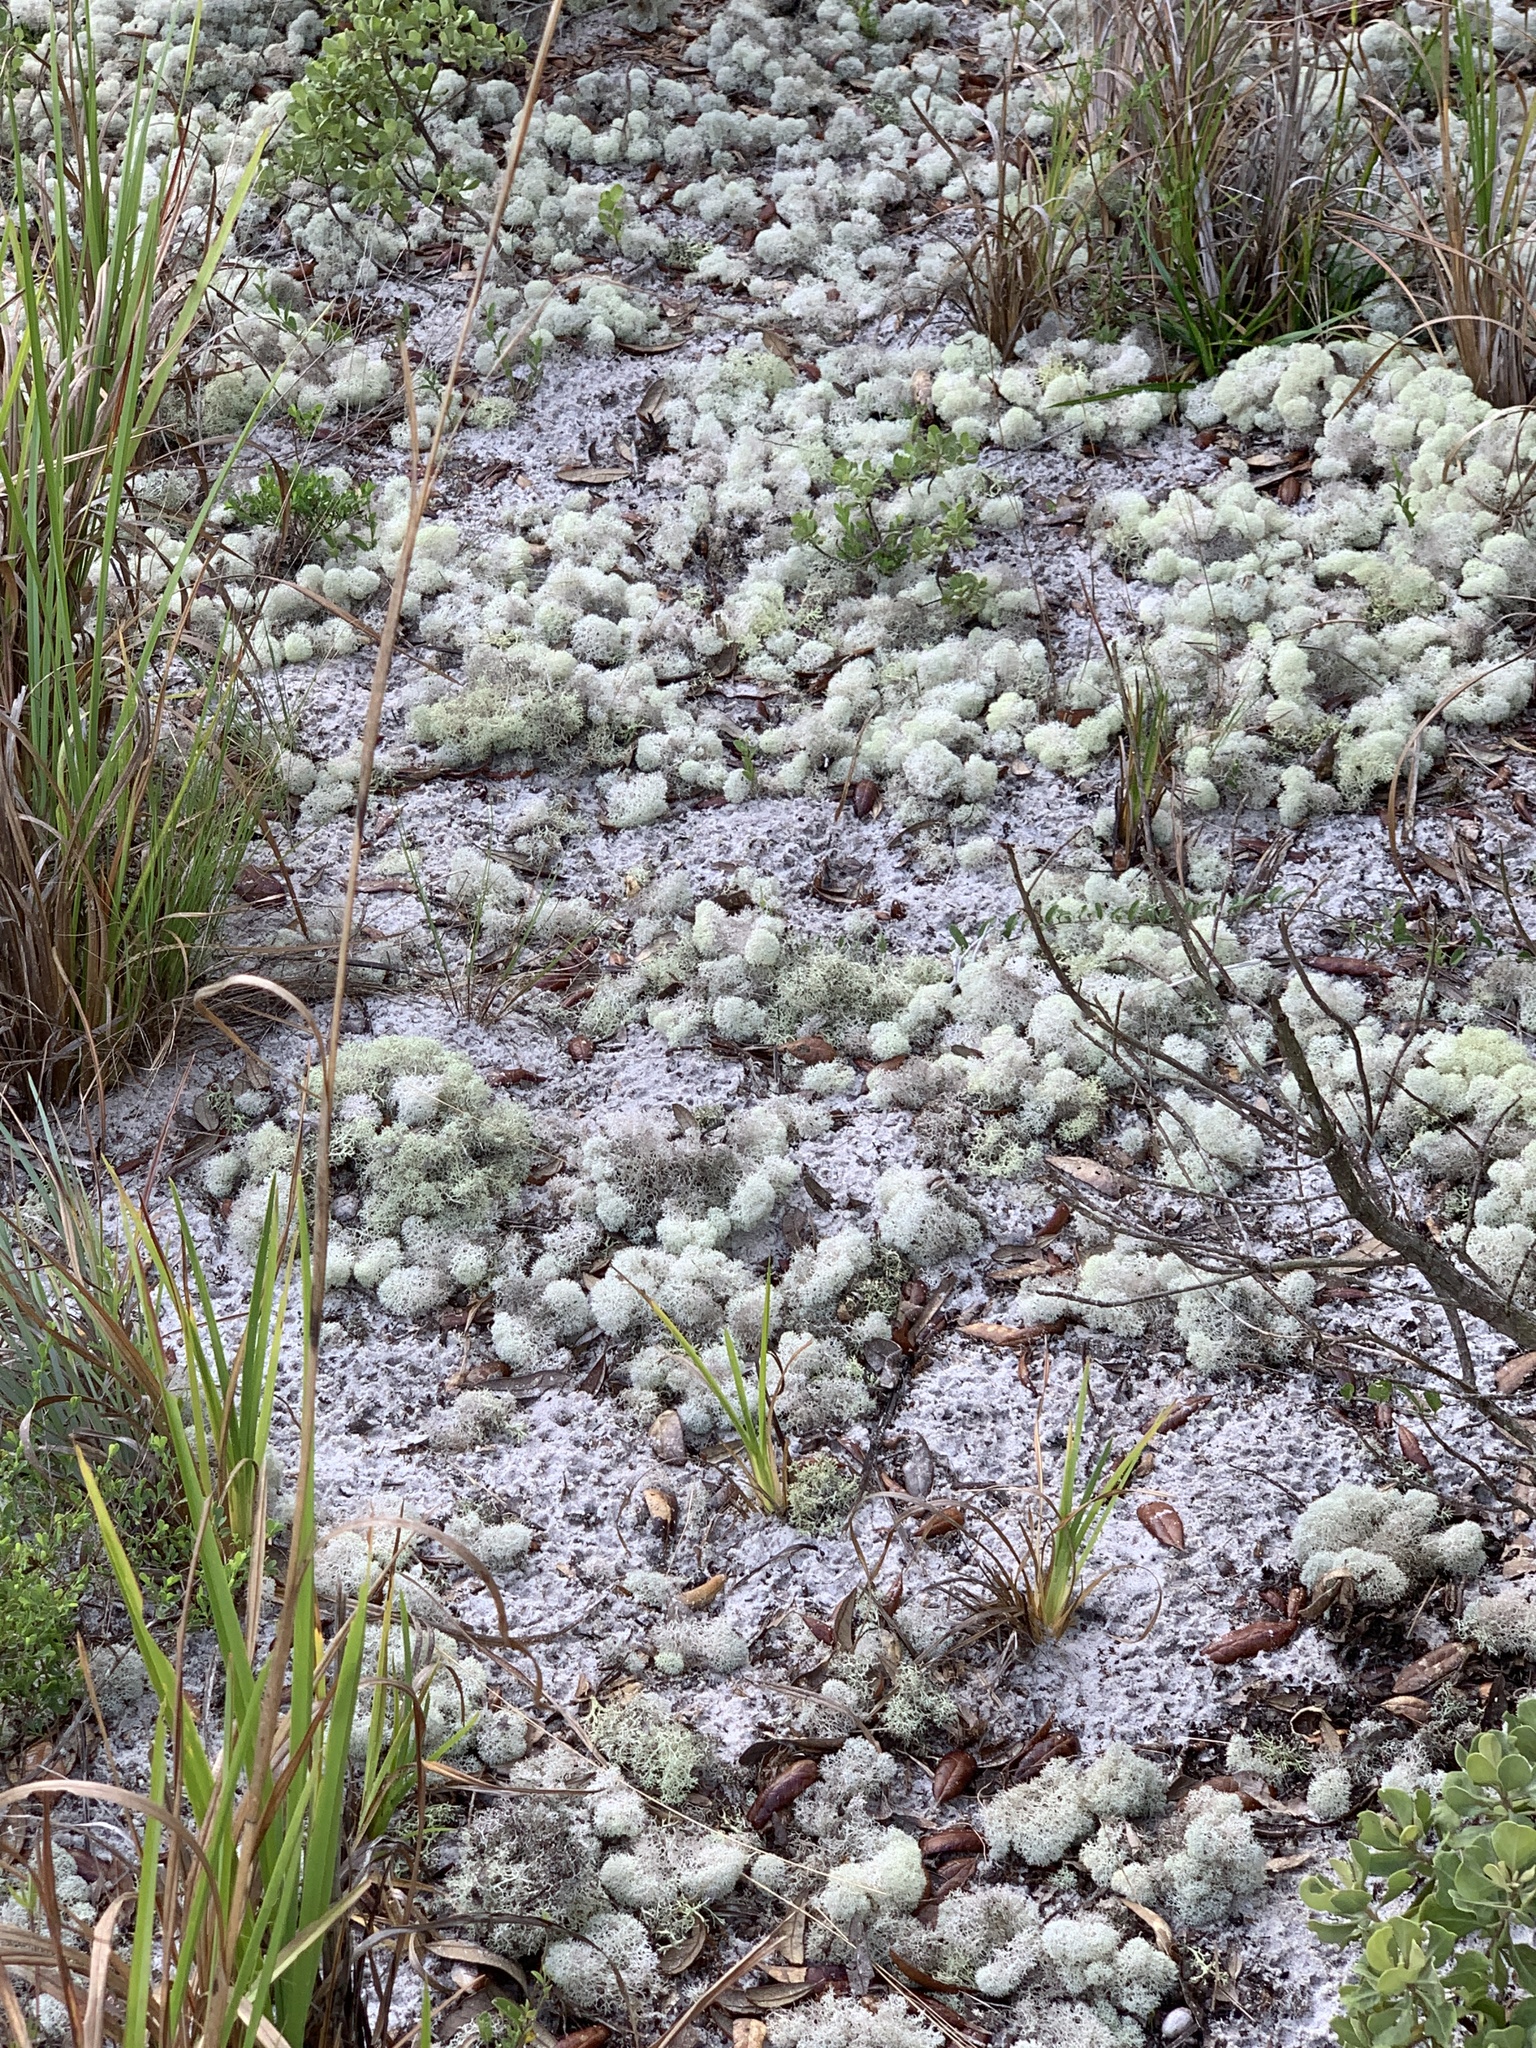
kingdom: Fungi
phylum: Ascomycota
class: Lecanoromycetes
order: Lecanorales
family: Cladoniaceae
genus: Cladonia
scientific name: Cladonia evansii
